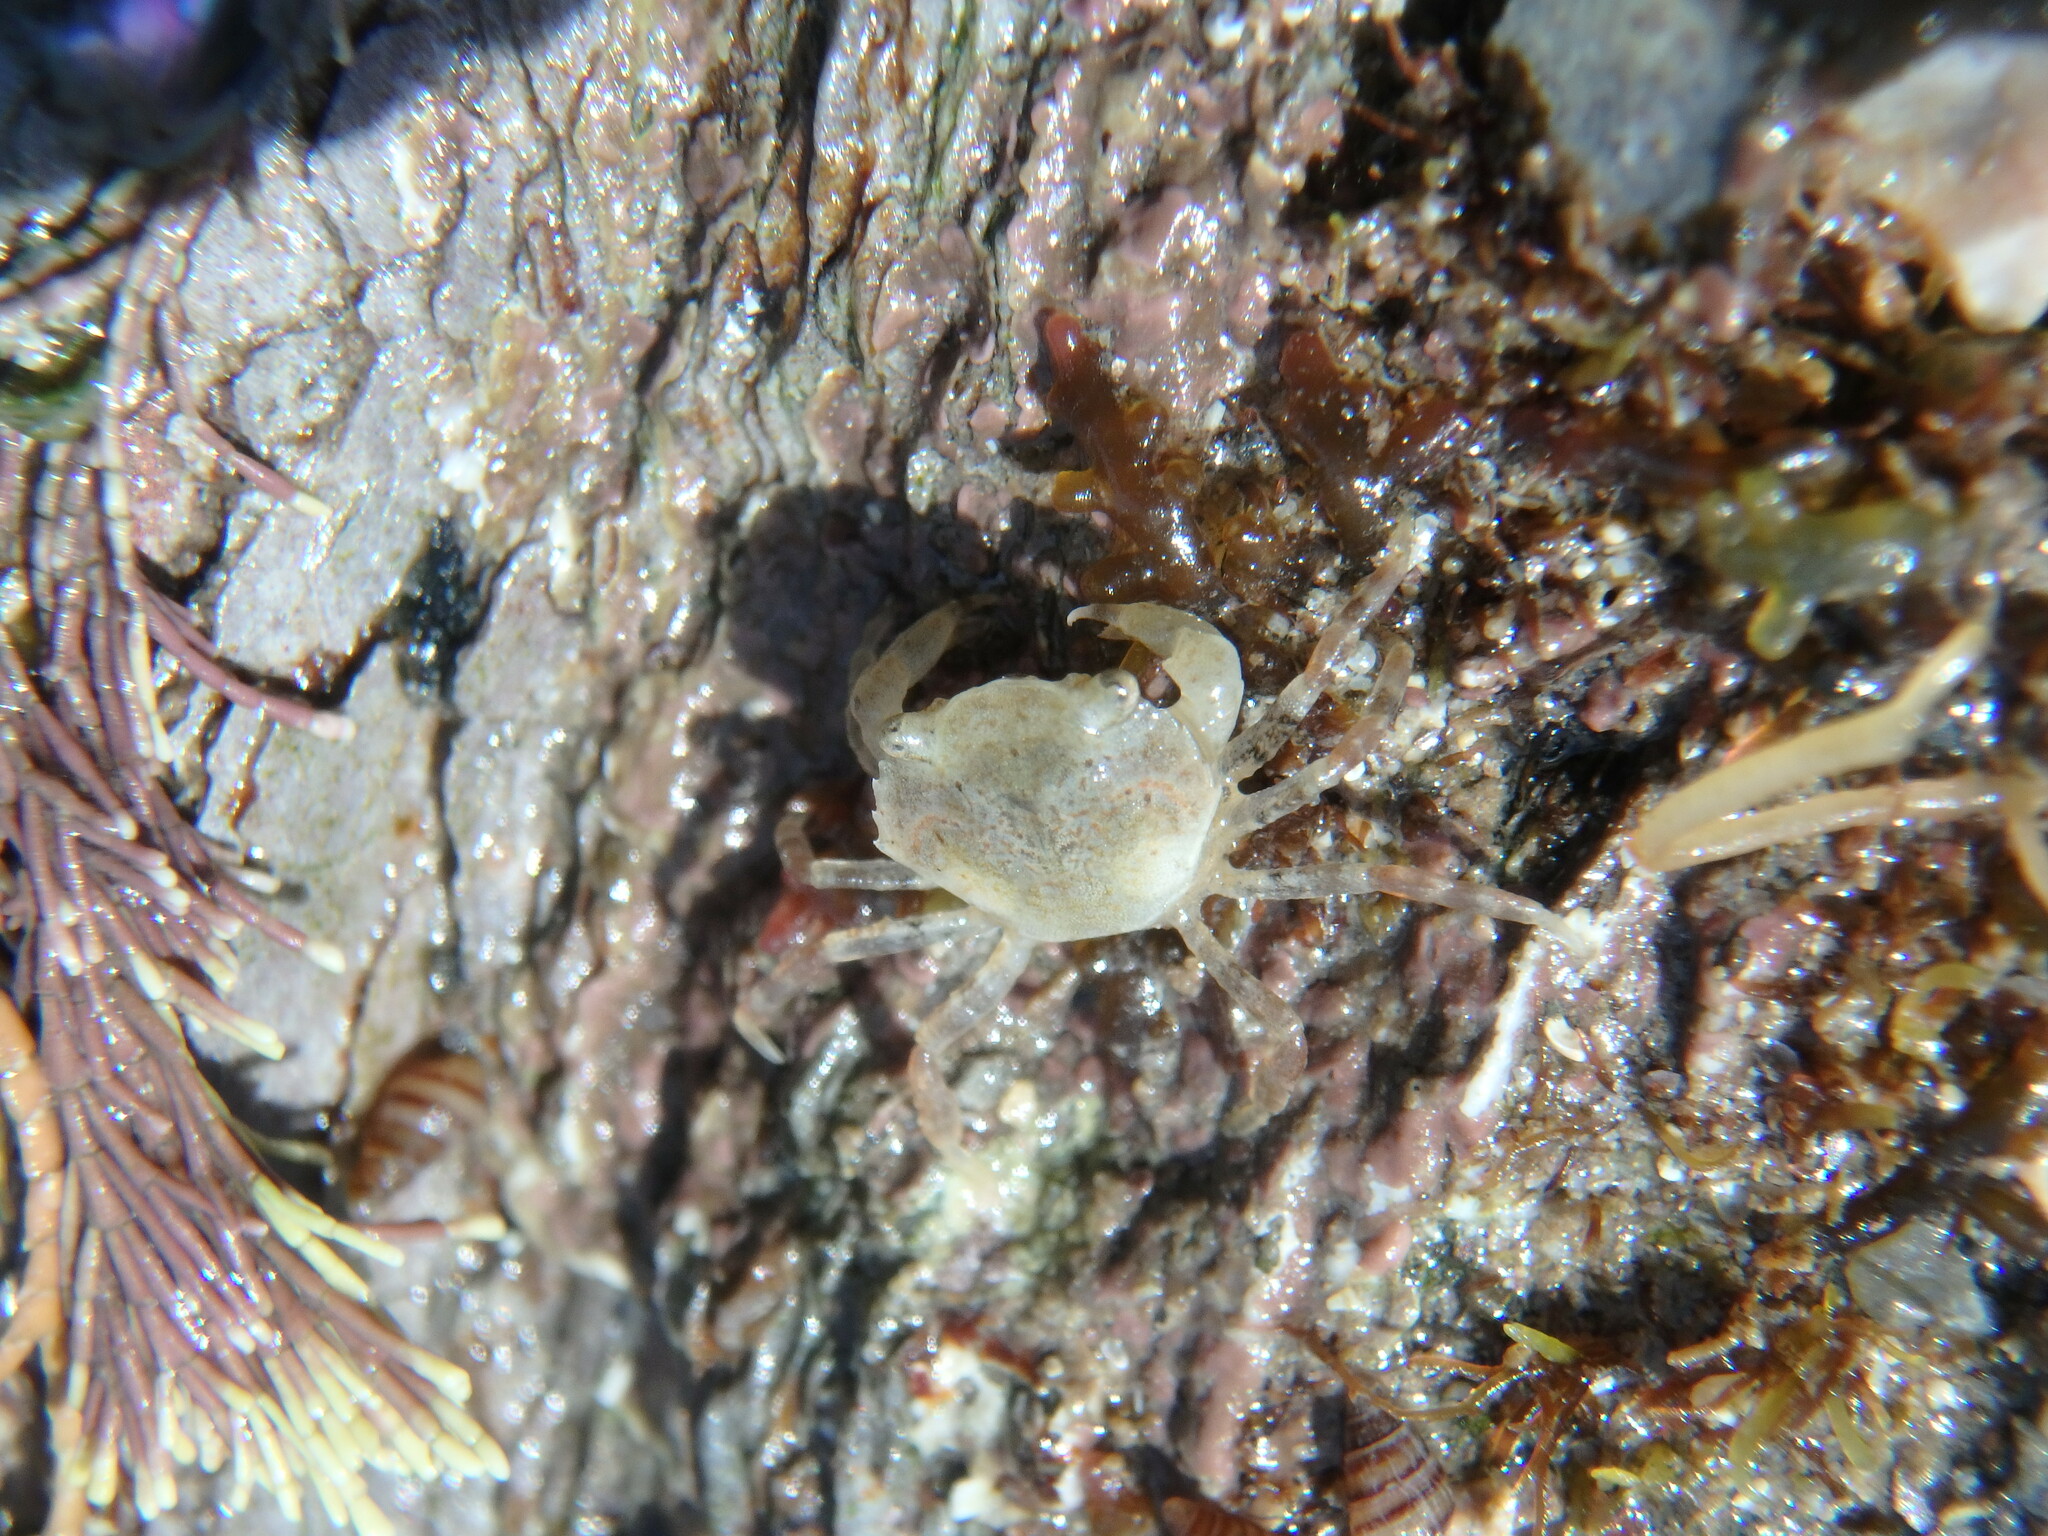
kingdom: Animalia
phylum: Arthropoda
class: Malacostraca
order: Decapoda
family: Carcinidae
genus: Carcinus
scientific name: Carcinus maenas
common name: European green crab
